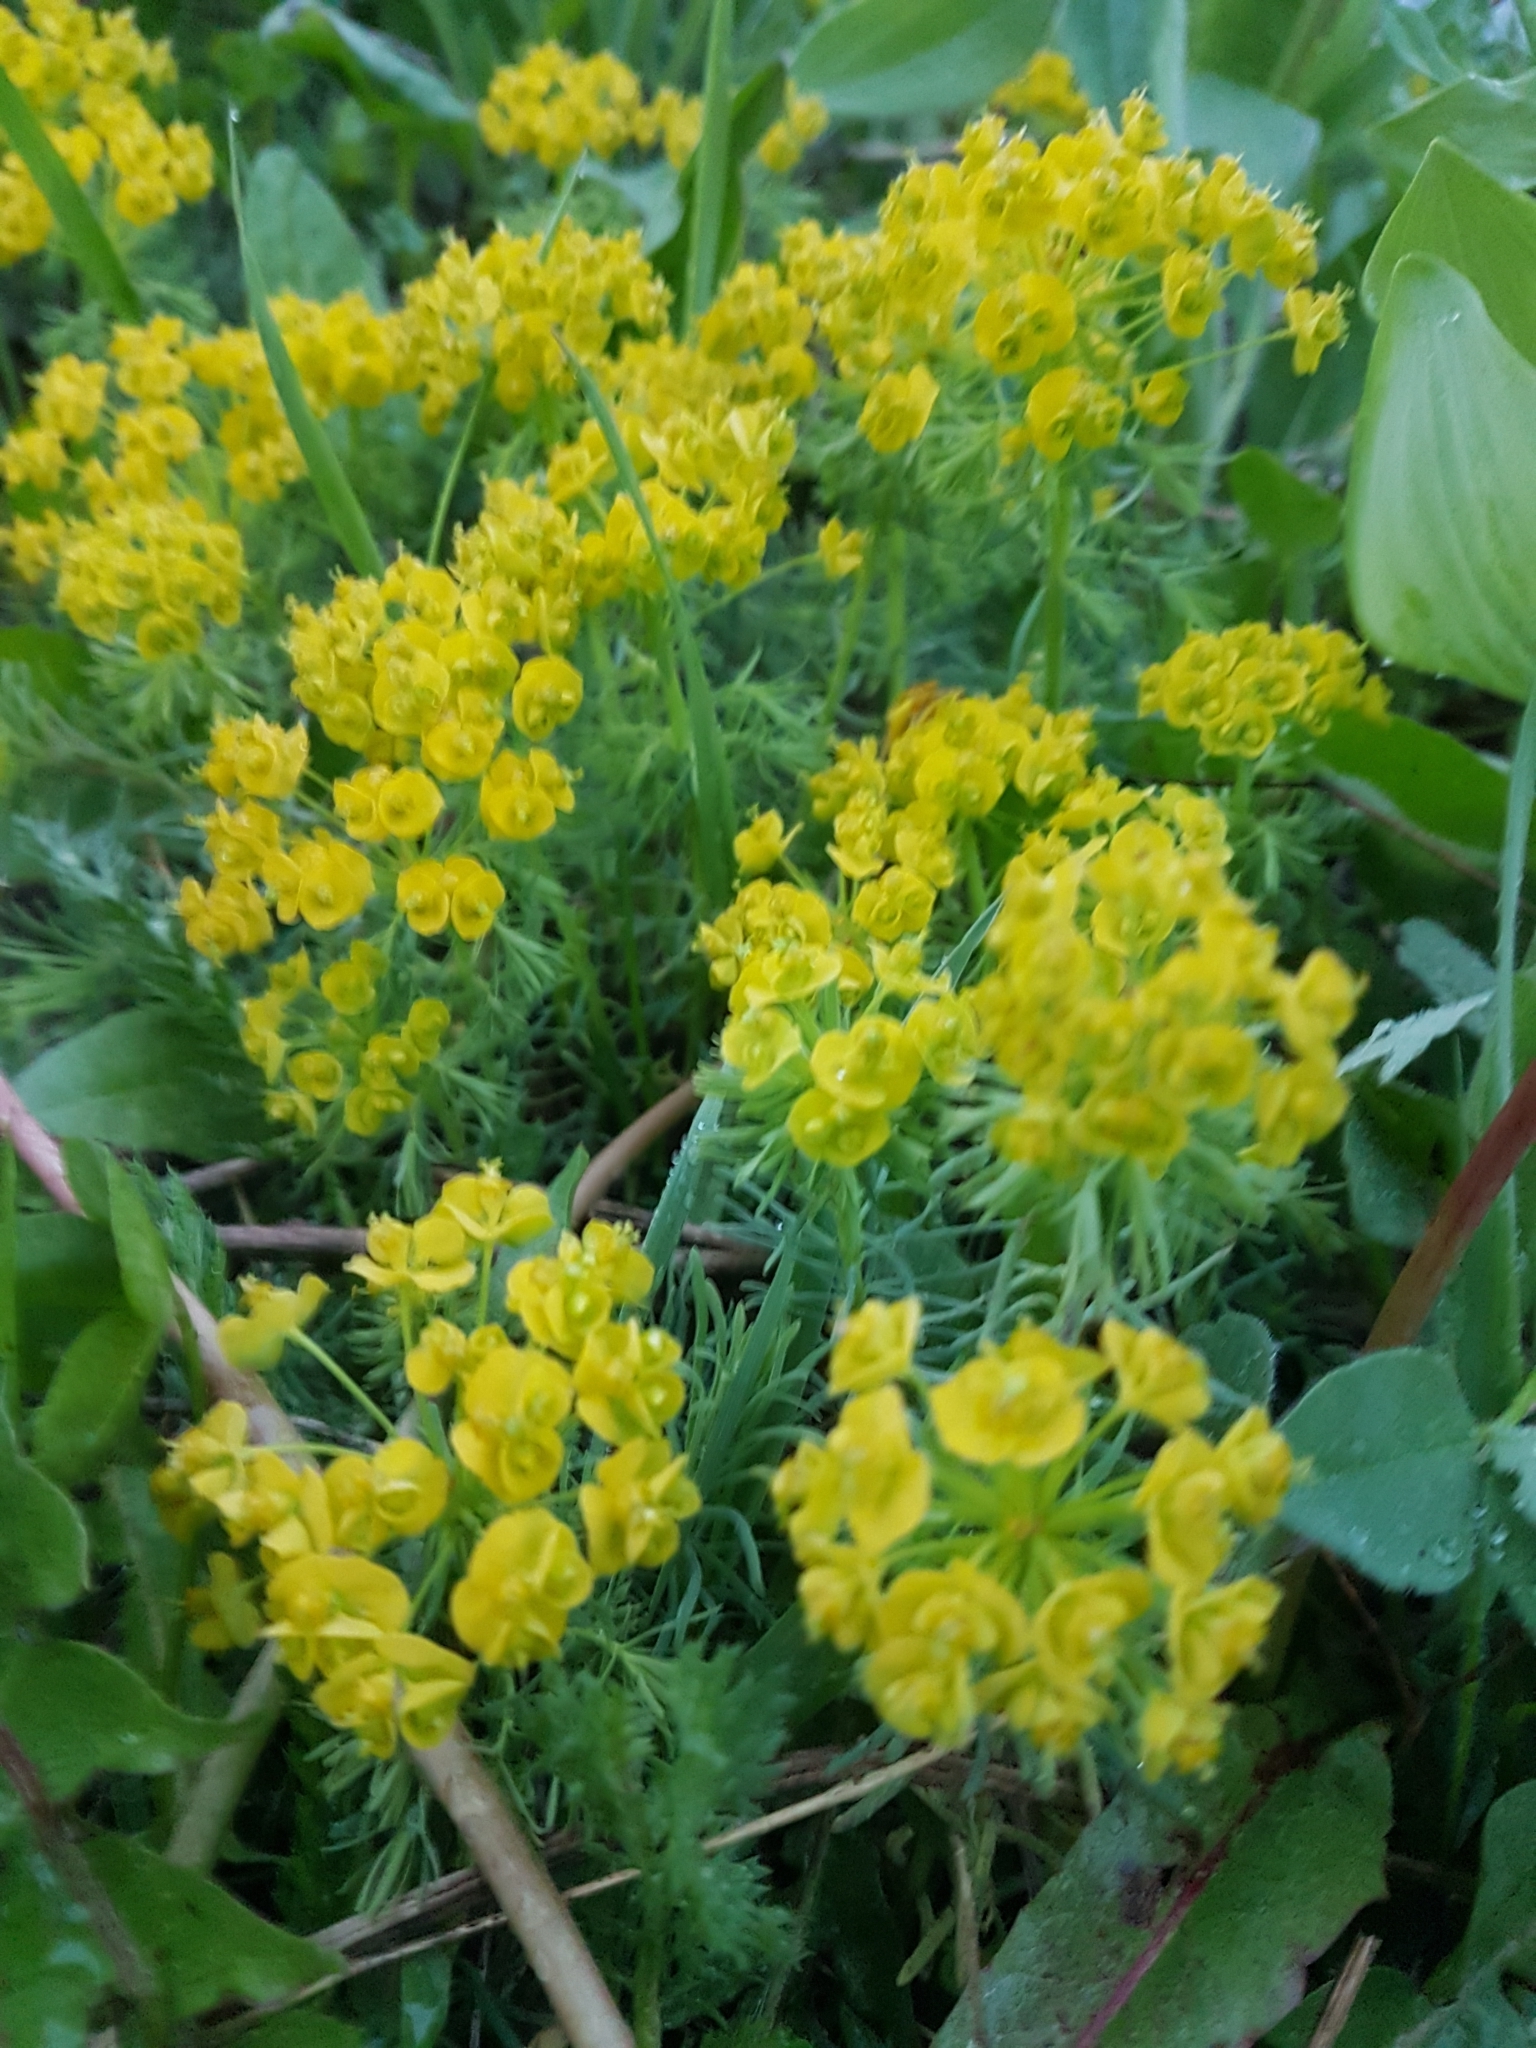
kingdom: Plantae
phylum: Tracheophyta
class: Magnoliopsida
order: Malpighiales
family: Euphorbiaceae
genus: Euphorbia
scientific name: Euphorbia cyparissias
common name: Cypress spurge
